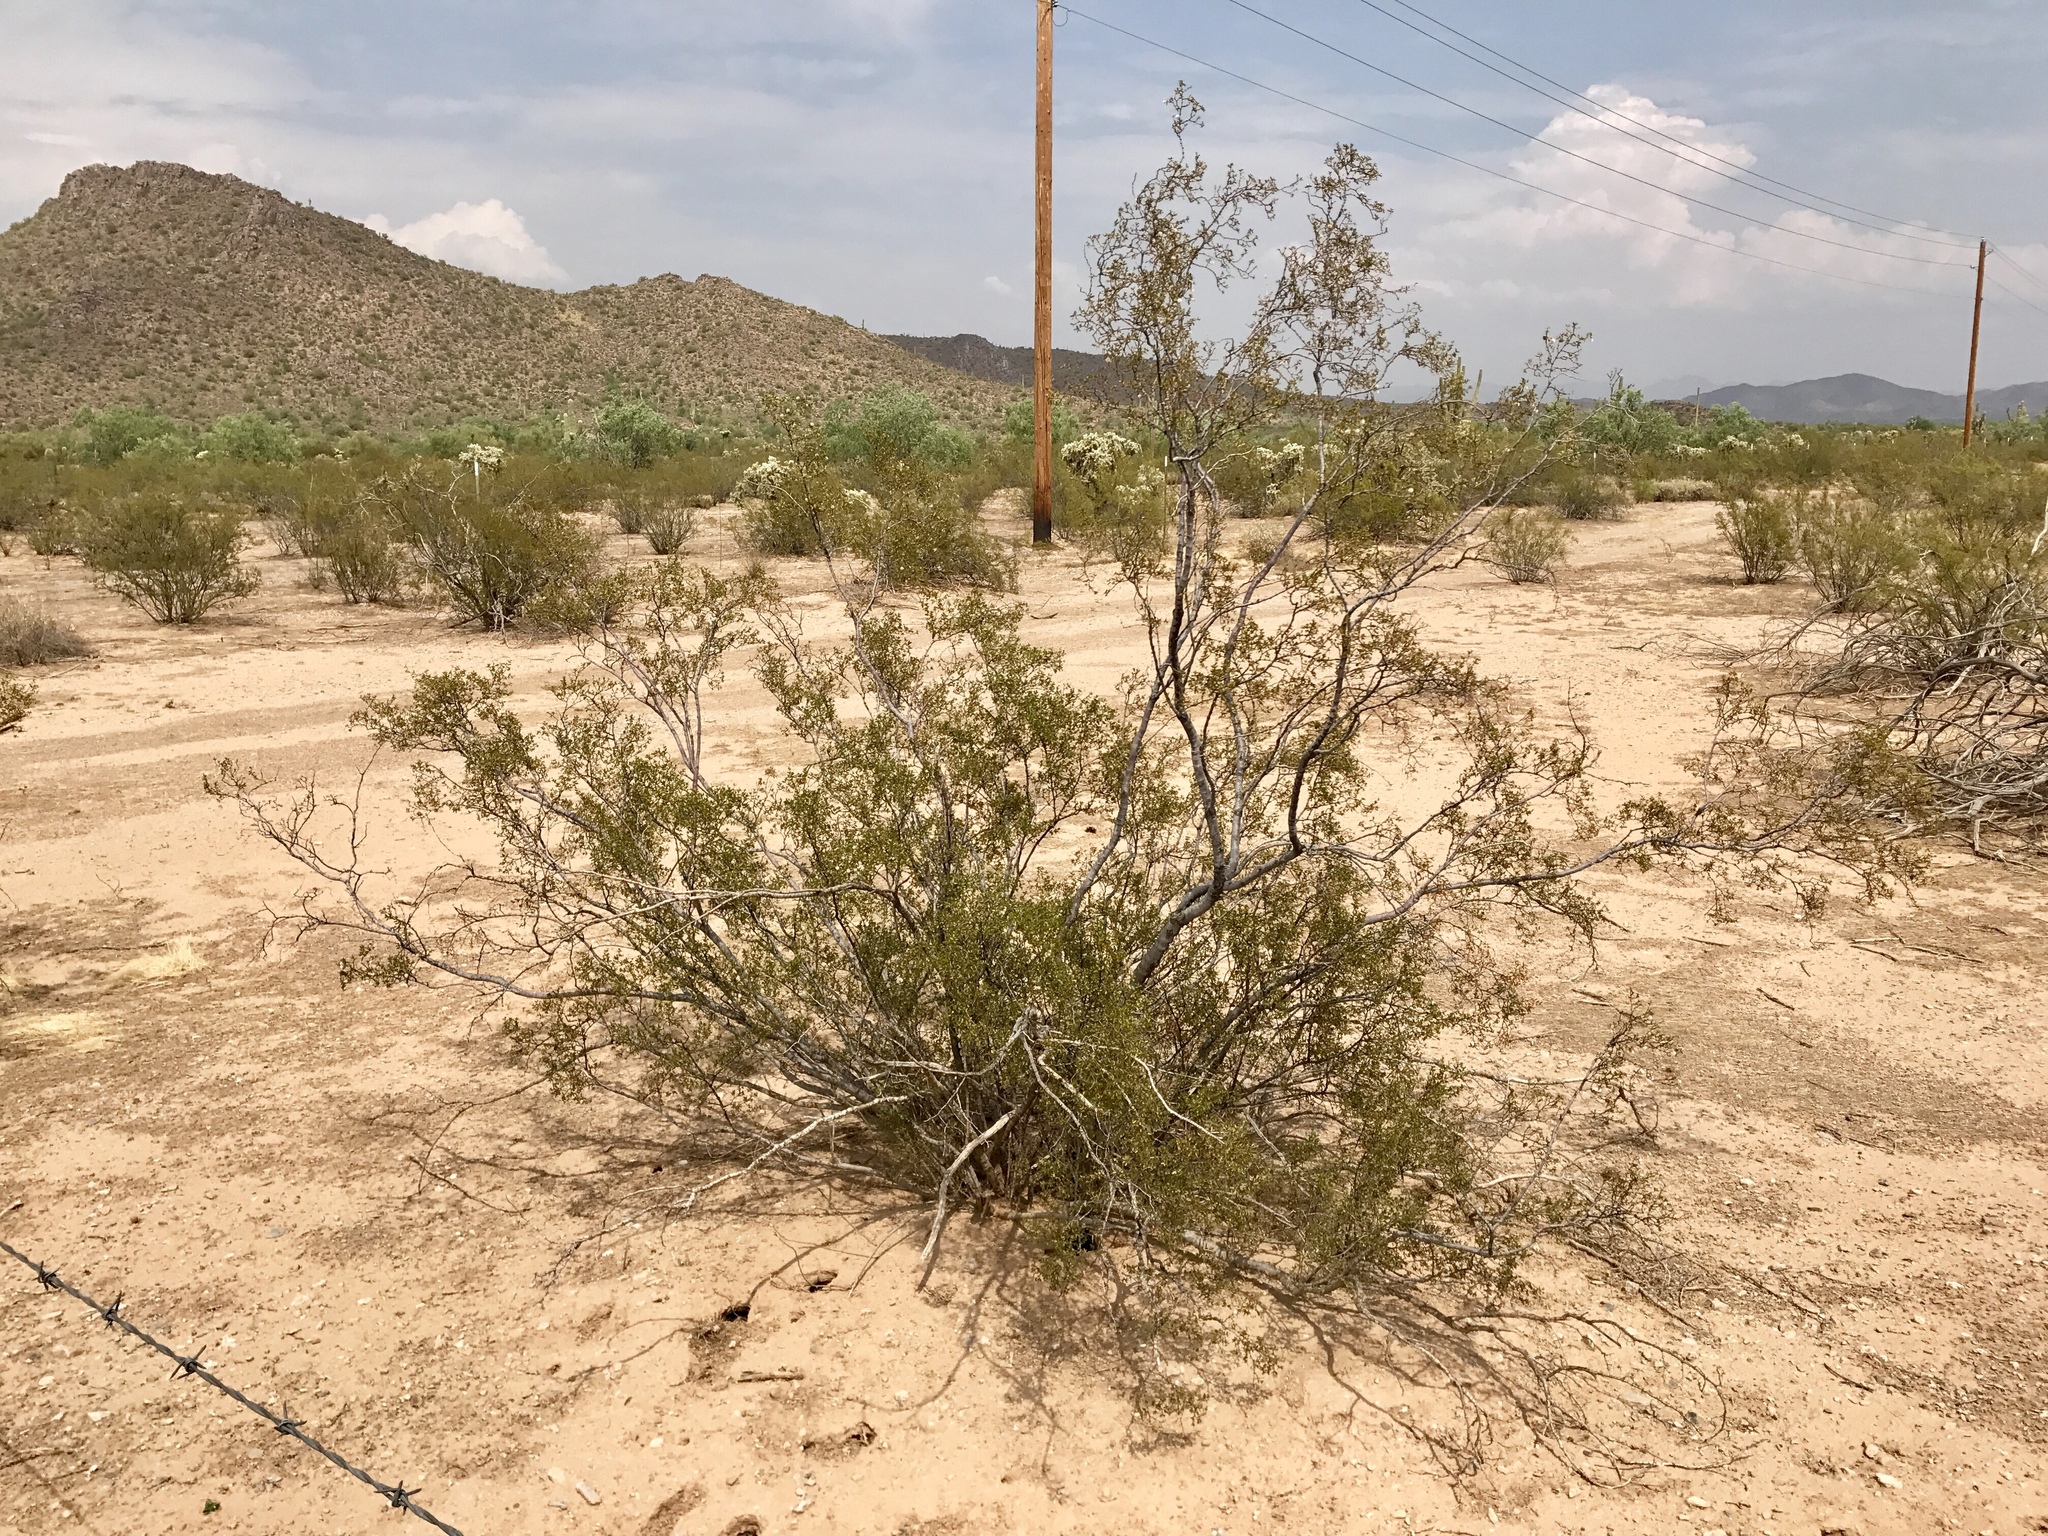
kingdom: Plantae
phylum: Tracheophyta
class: Magnoliopsida
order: Zygophyllales
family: Zygophyllaceae
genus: Larrea
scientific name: Larrea tridentata
